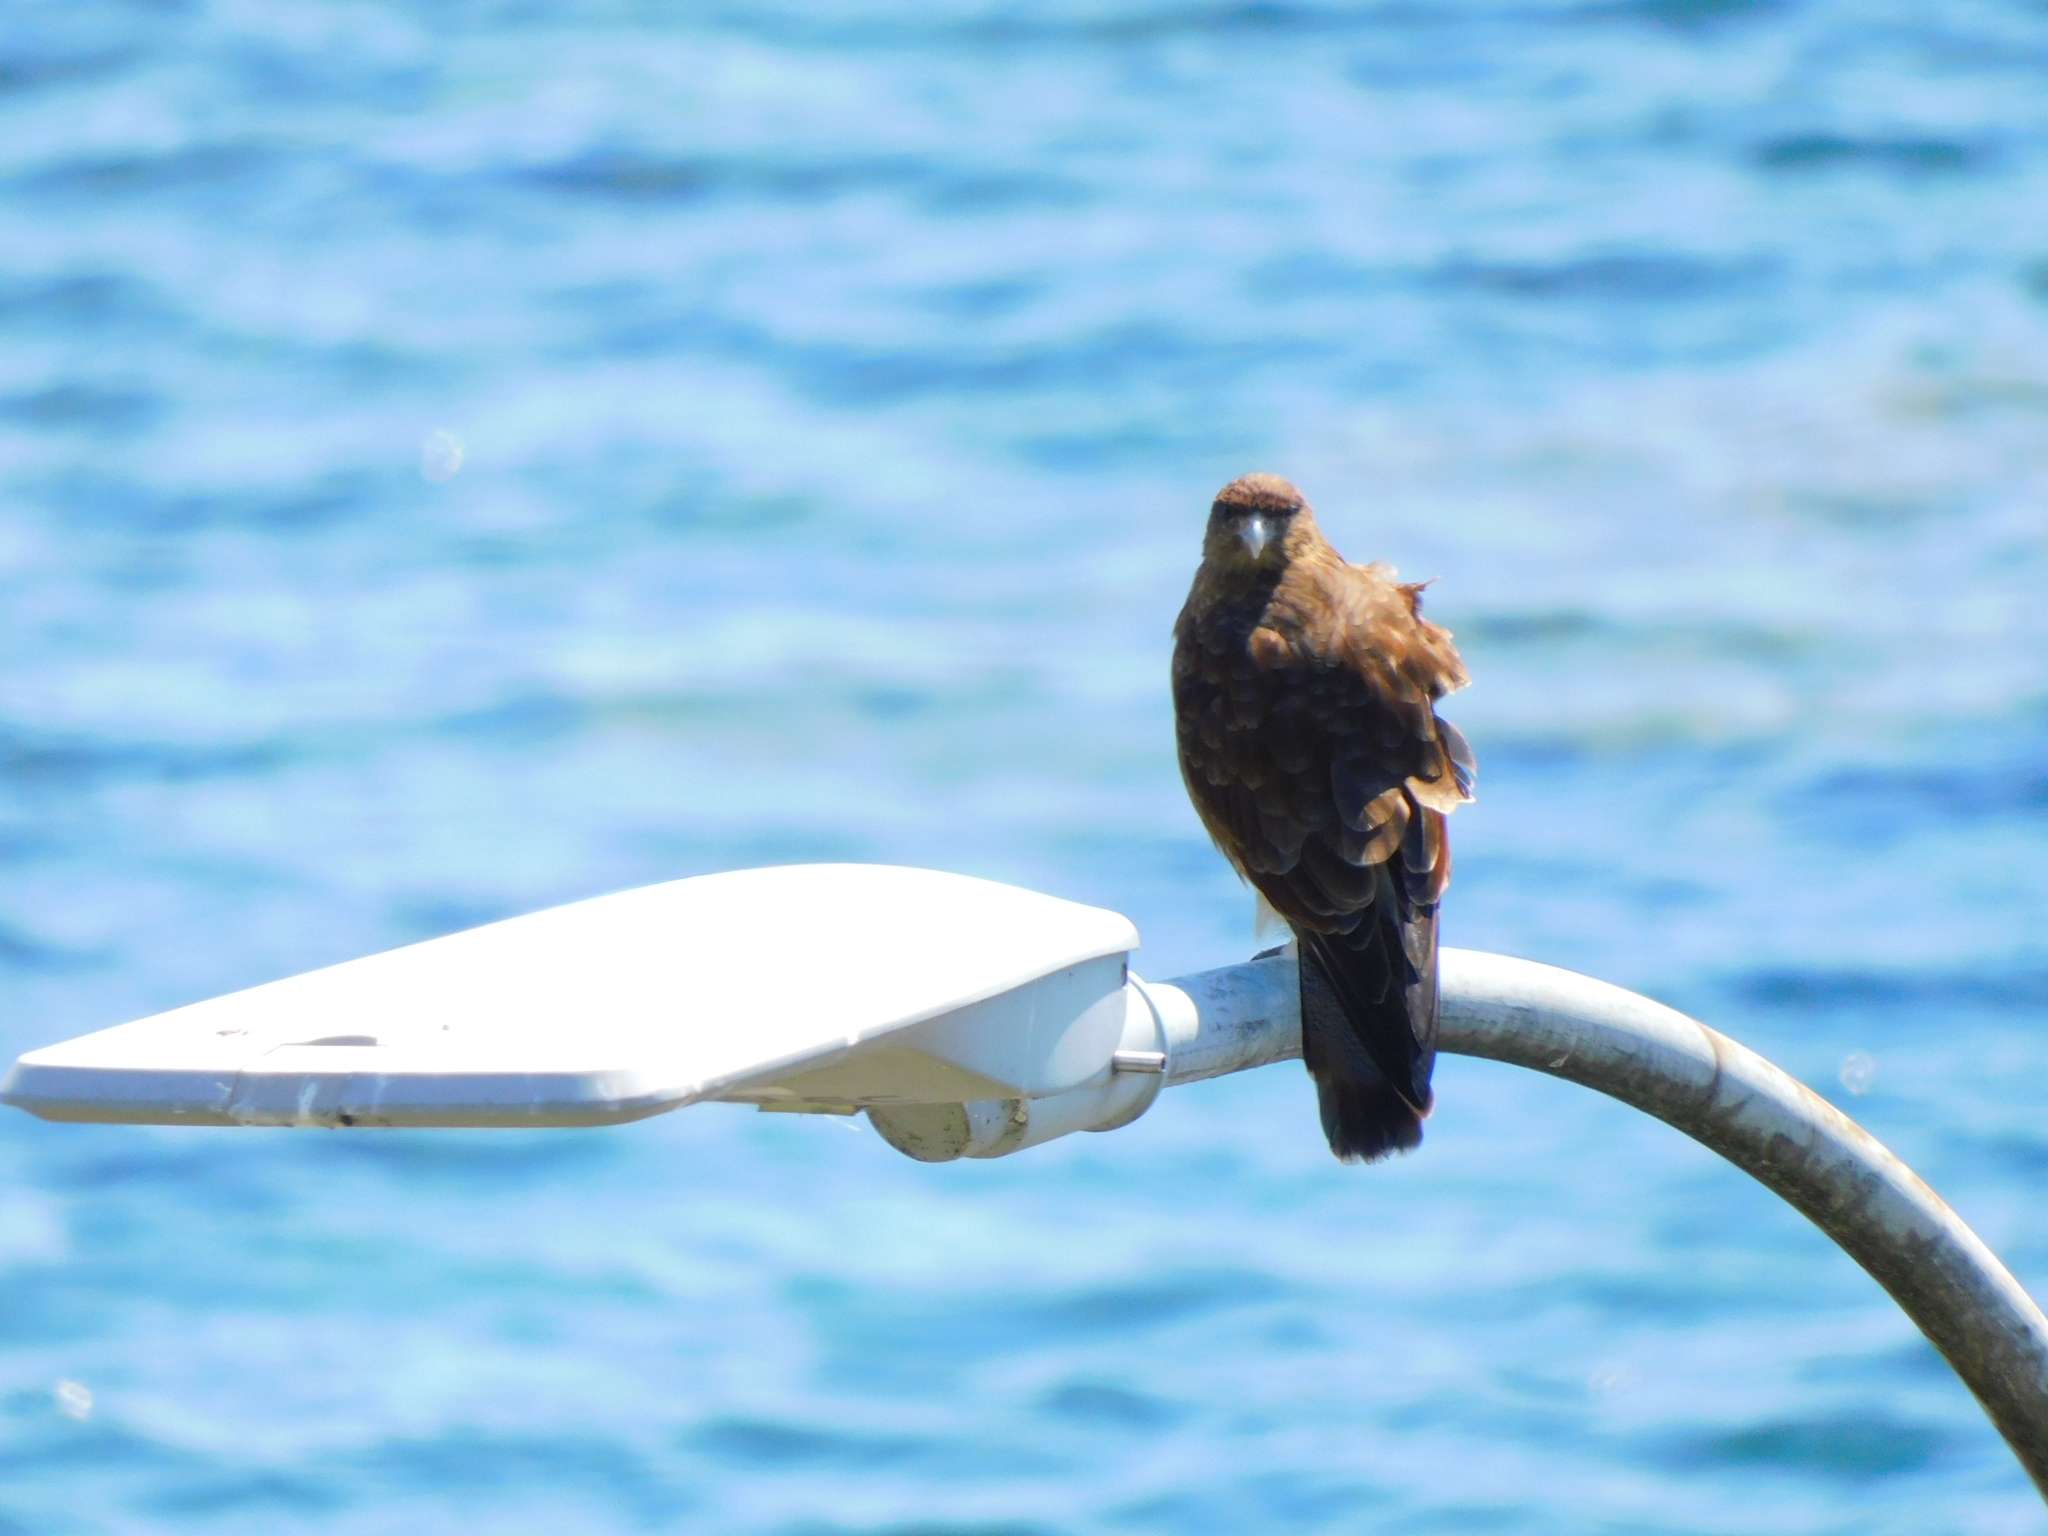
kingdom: Animalia
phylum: Chordata
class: Aves
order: Falconiformes
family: Falconidae
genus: Daptrius
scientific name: Daptrius
